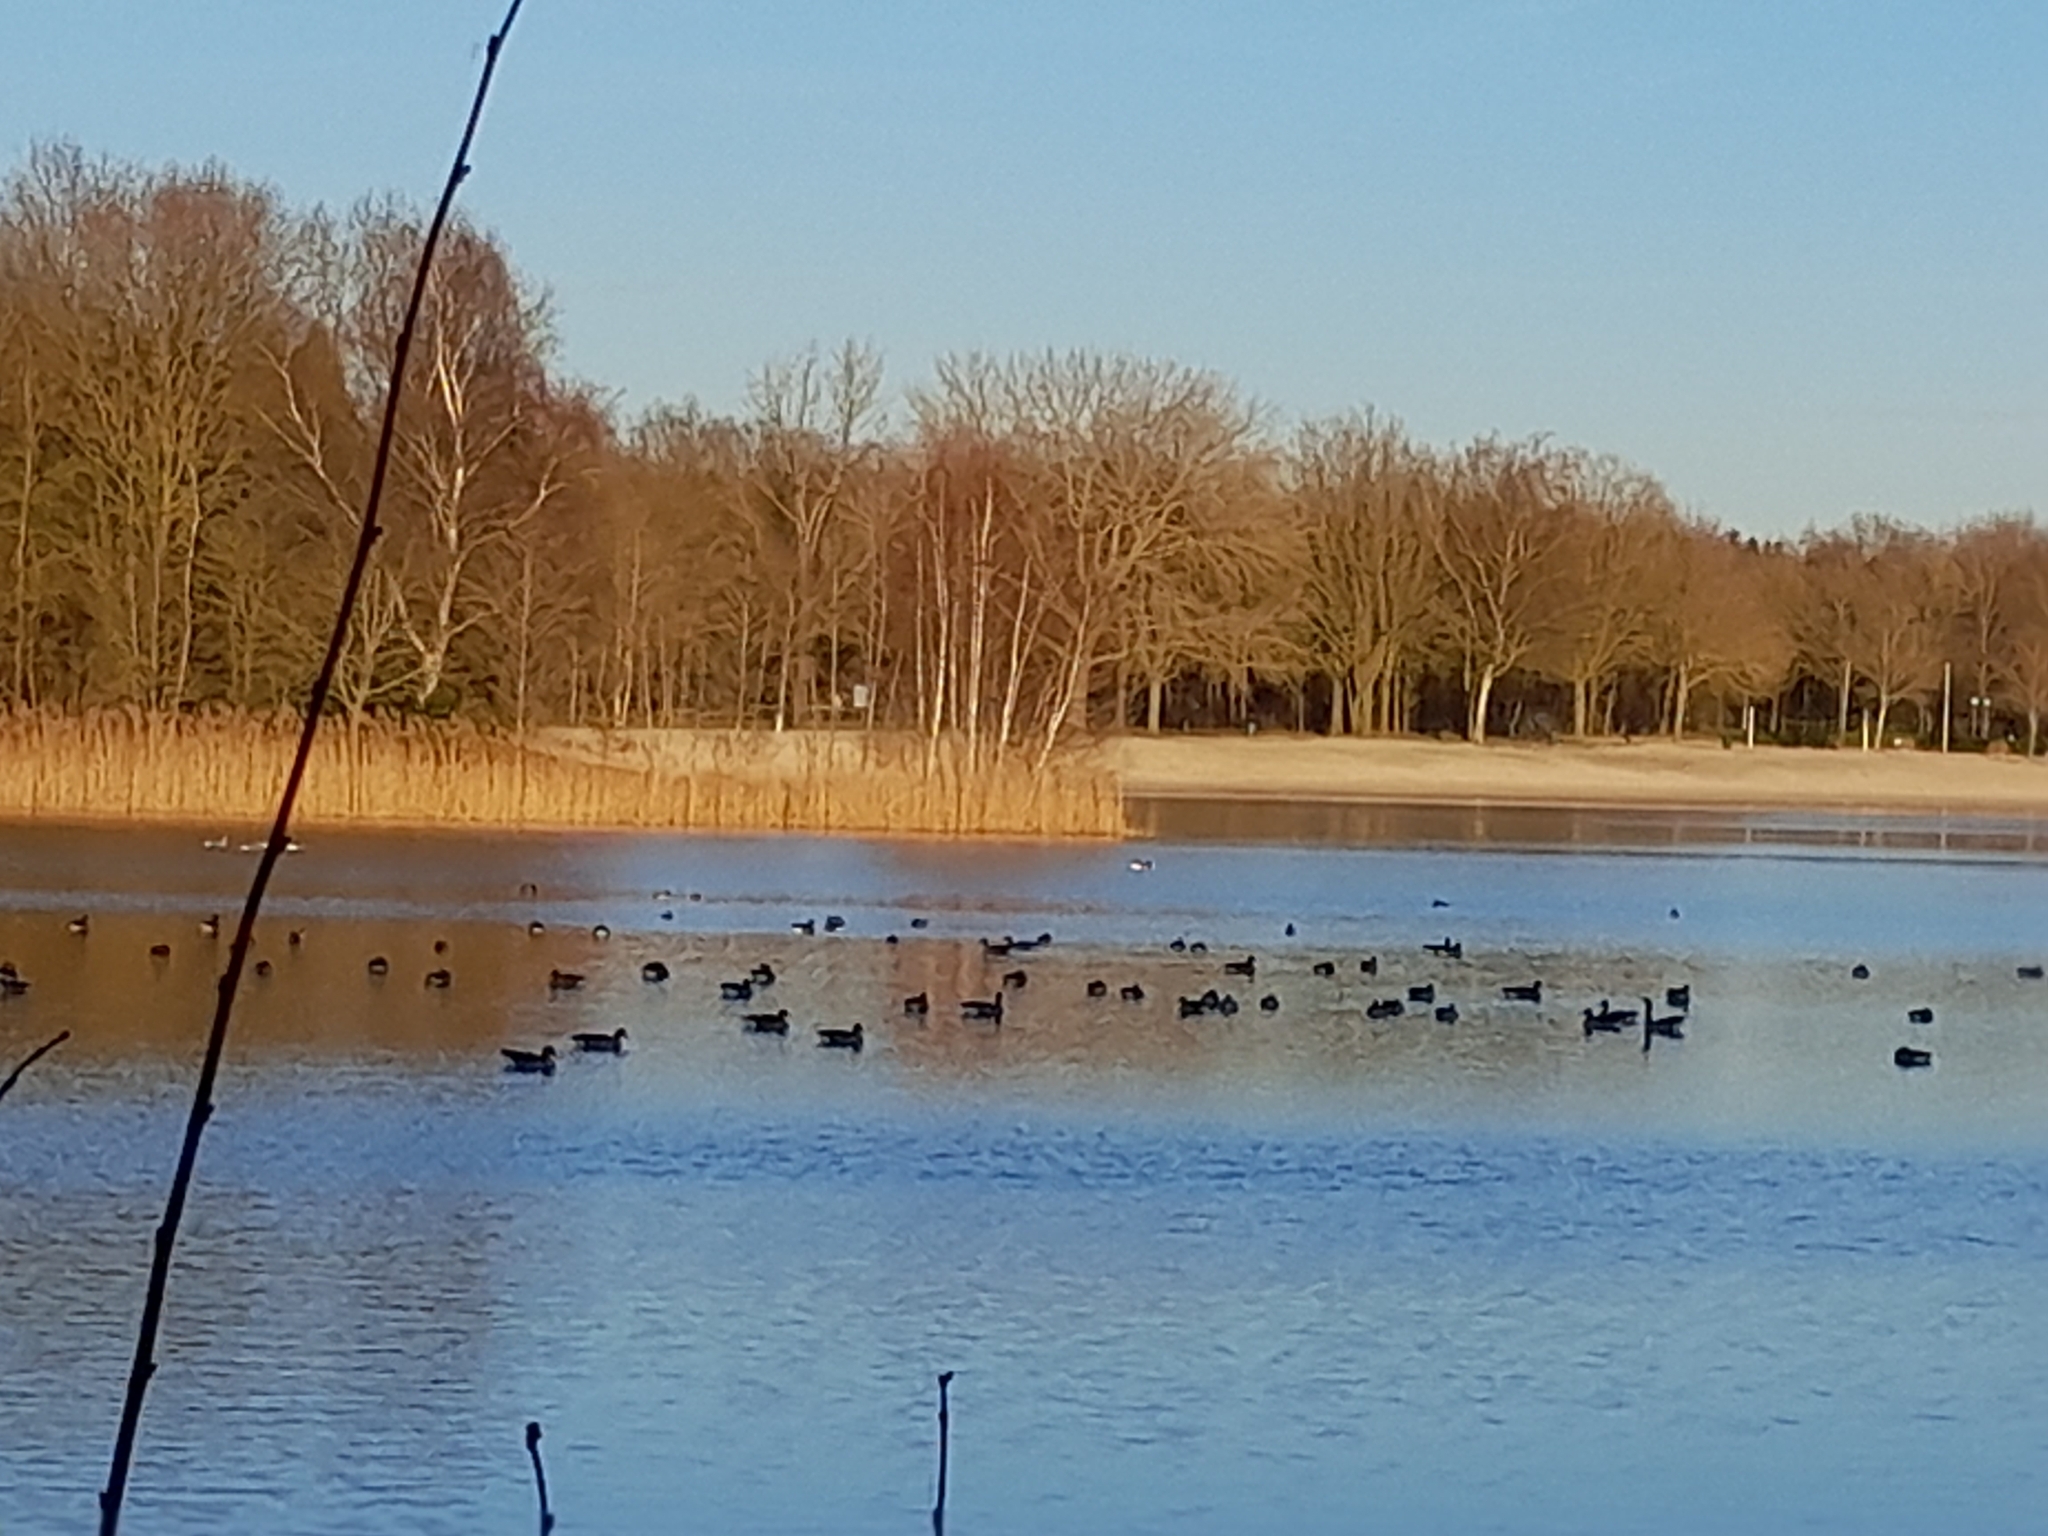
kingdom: Animalia
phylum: Chordata
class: Aves
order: Anseriformes
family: Anatidae
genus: Anser
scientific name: Anser anser
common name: Greylag goose
